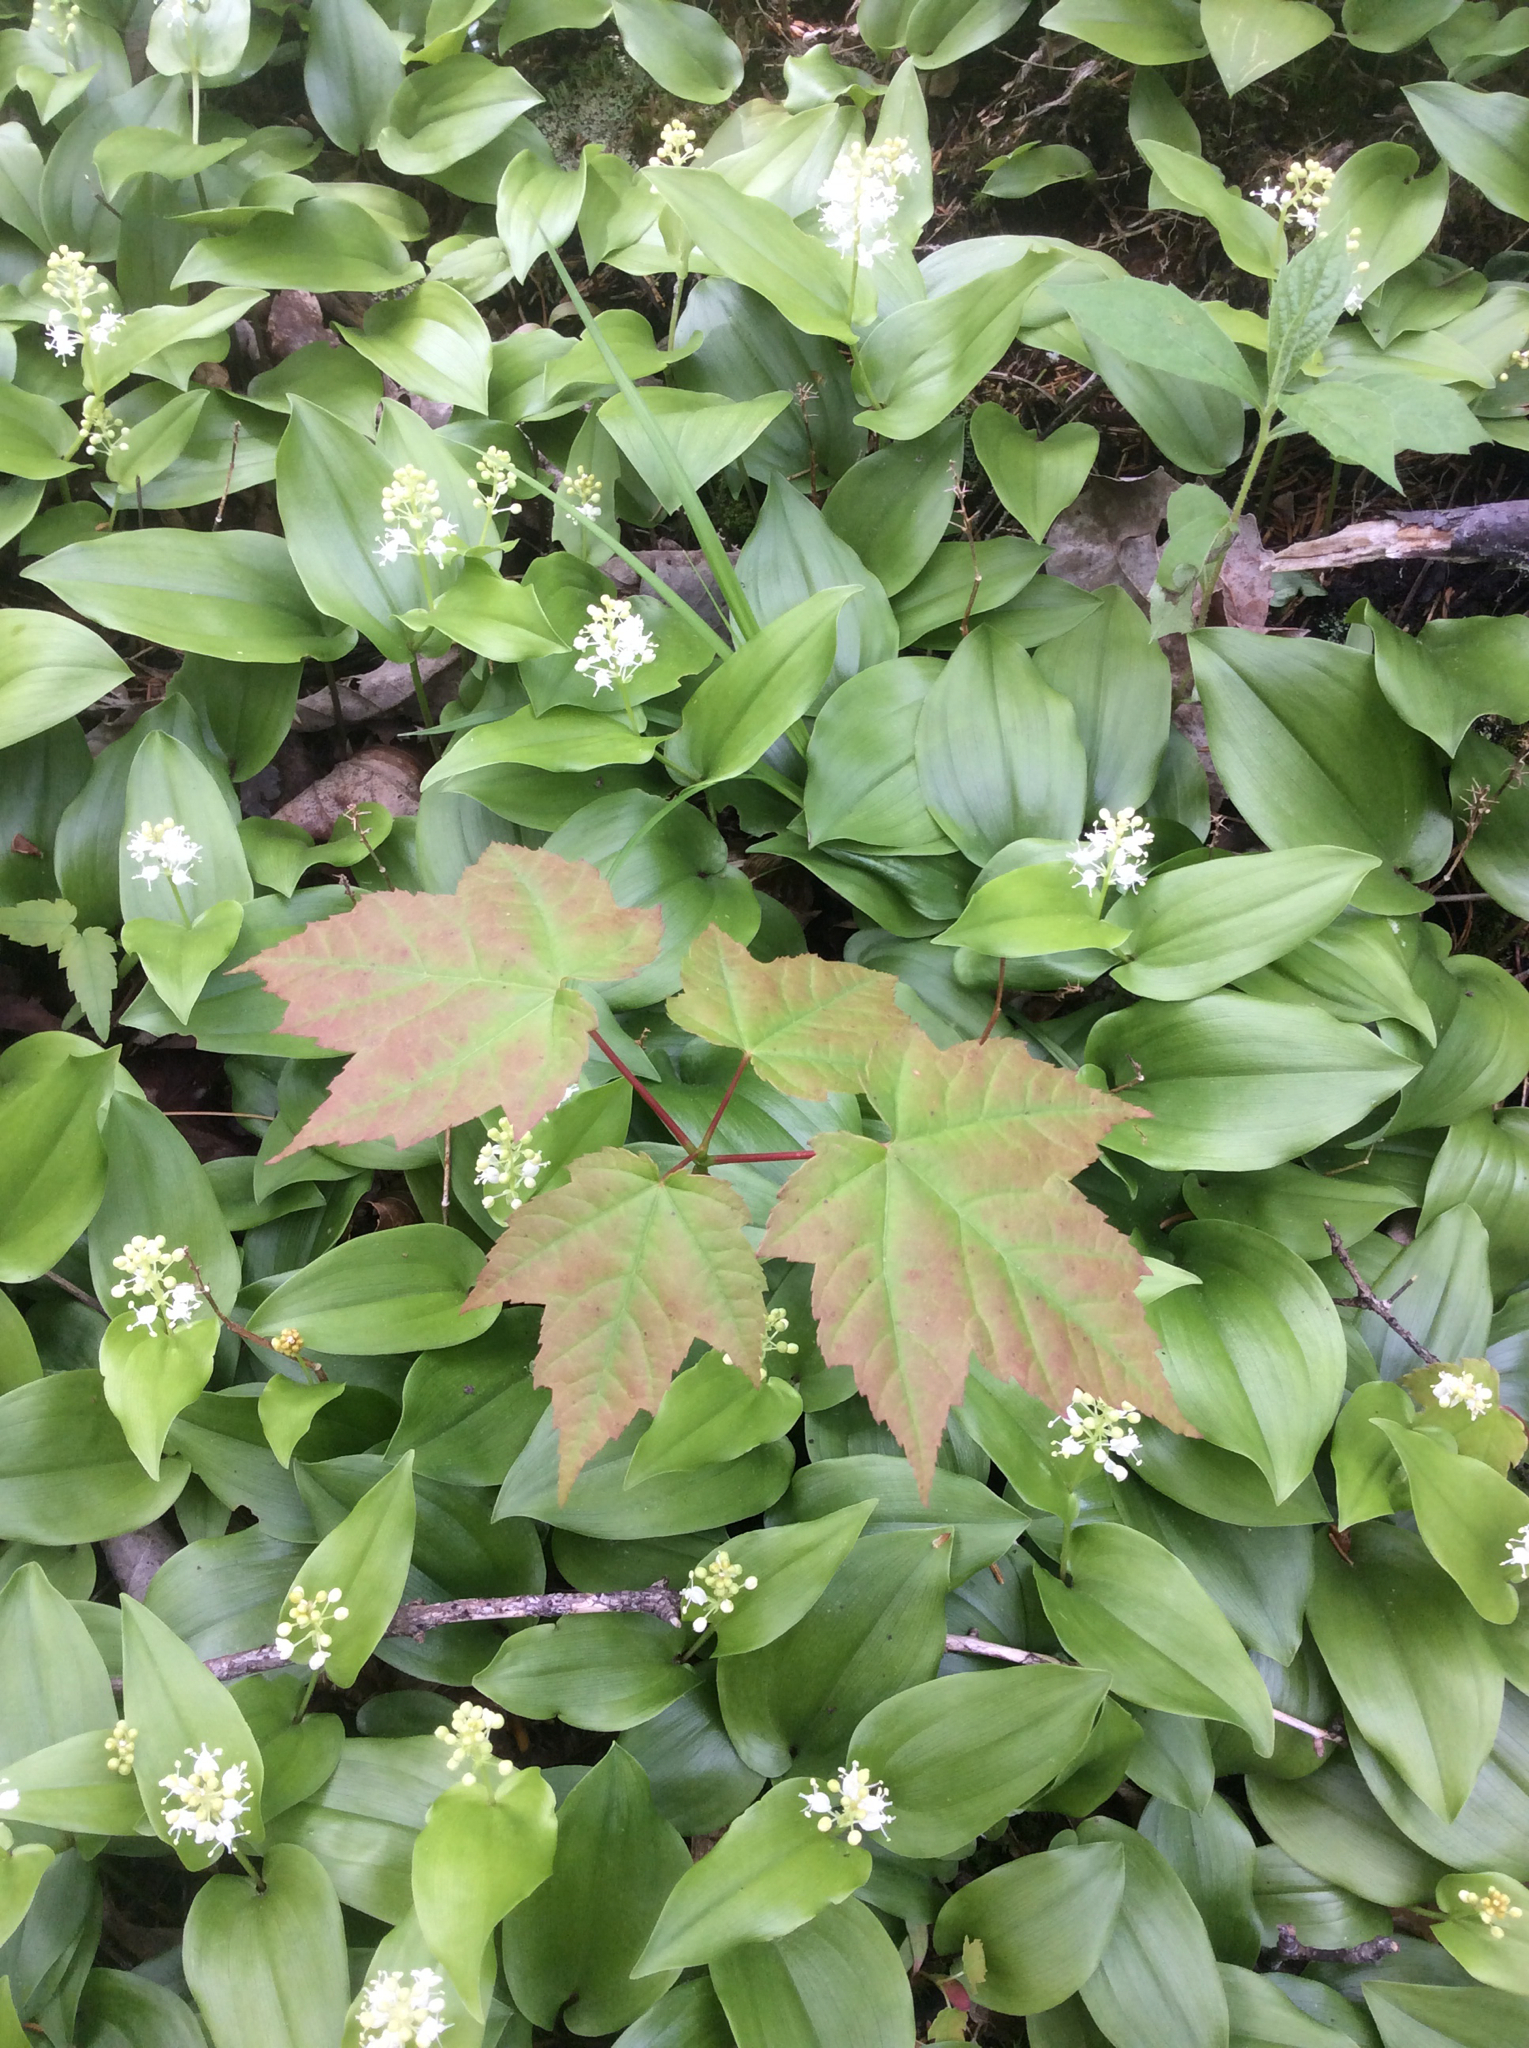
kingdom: Plantae
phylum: Tracheophyta
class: Magnoliopsida
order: Sapindales
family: Sapindaceae
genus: Acer
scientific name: Acer rubrum
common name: Red maple
